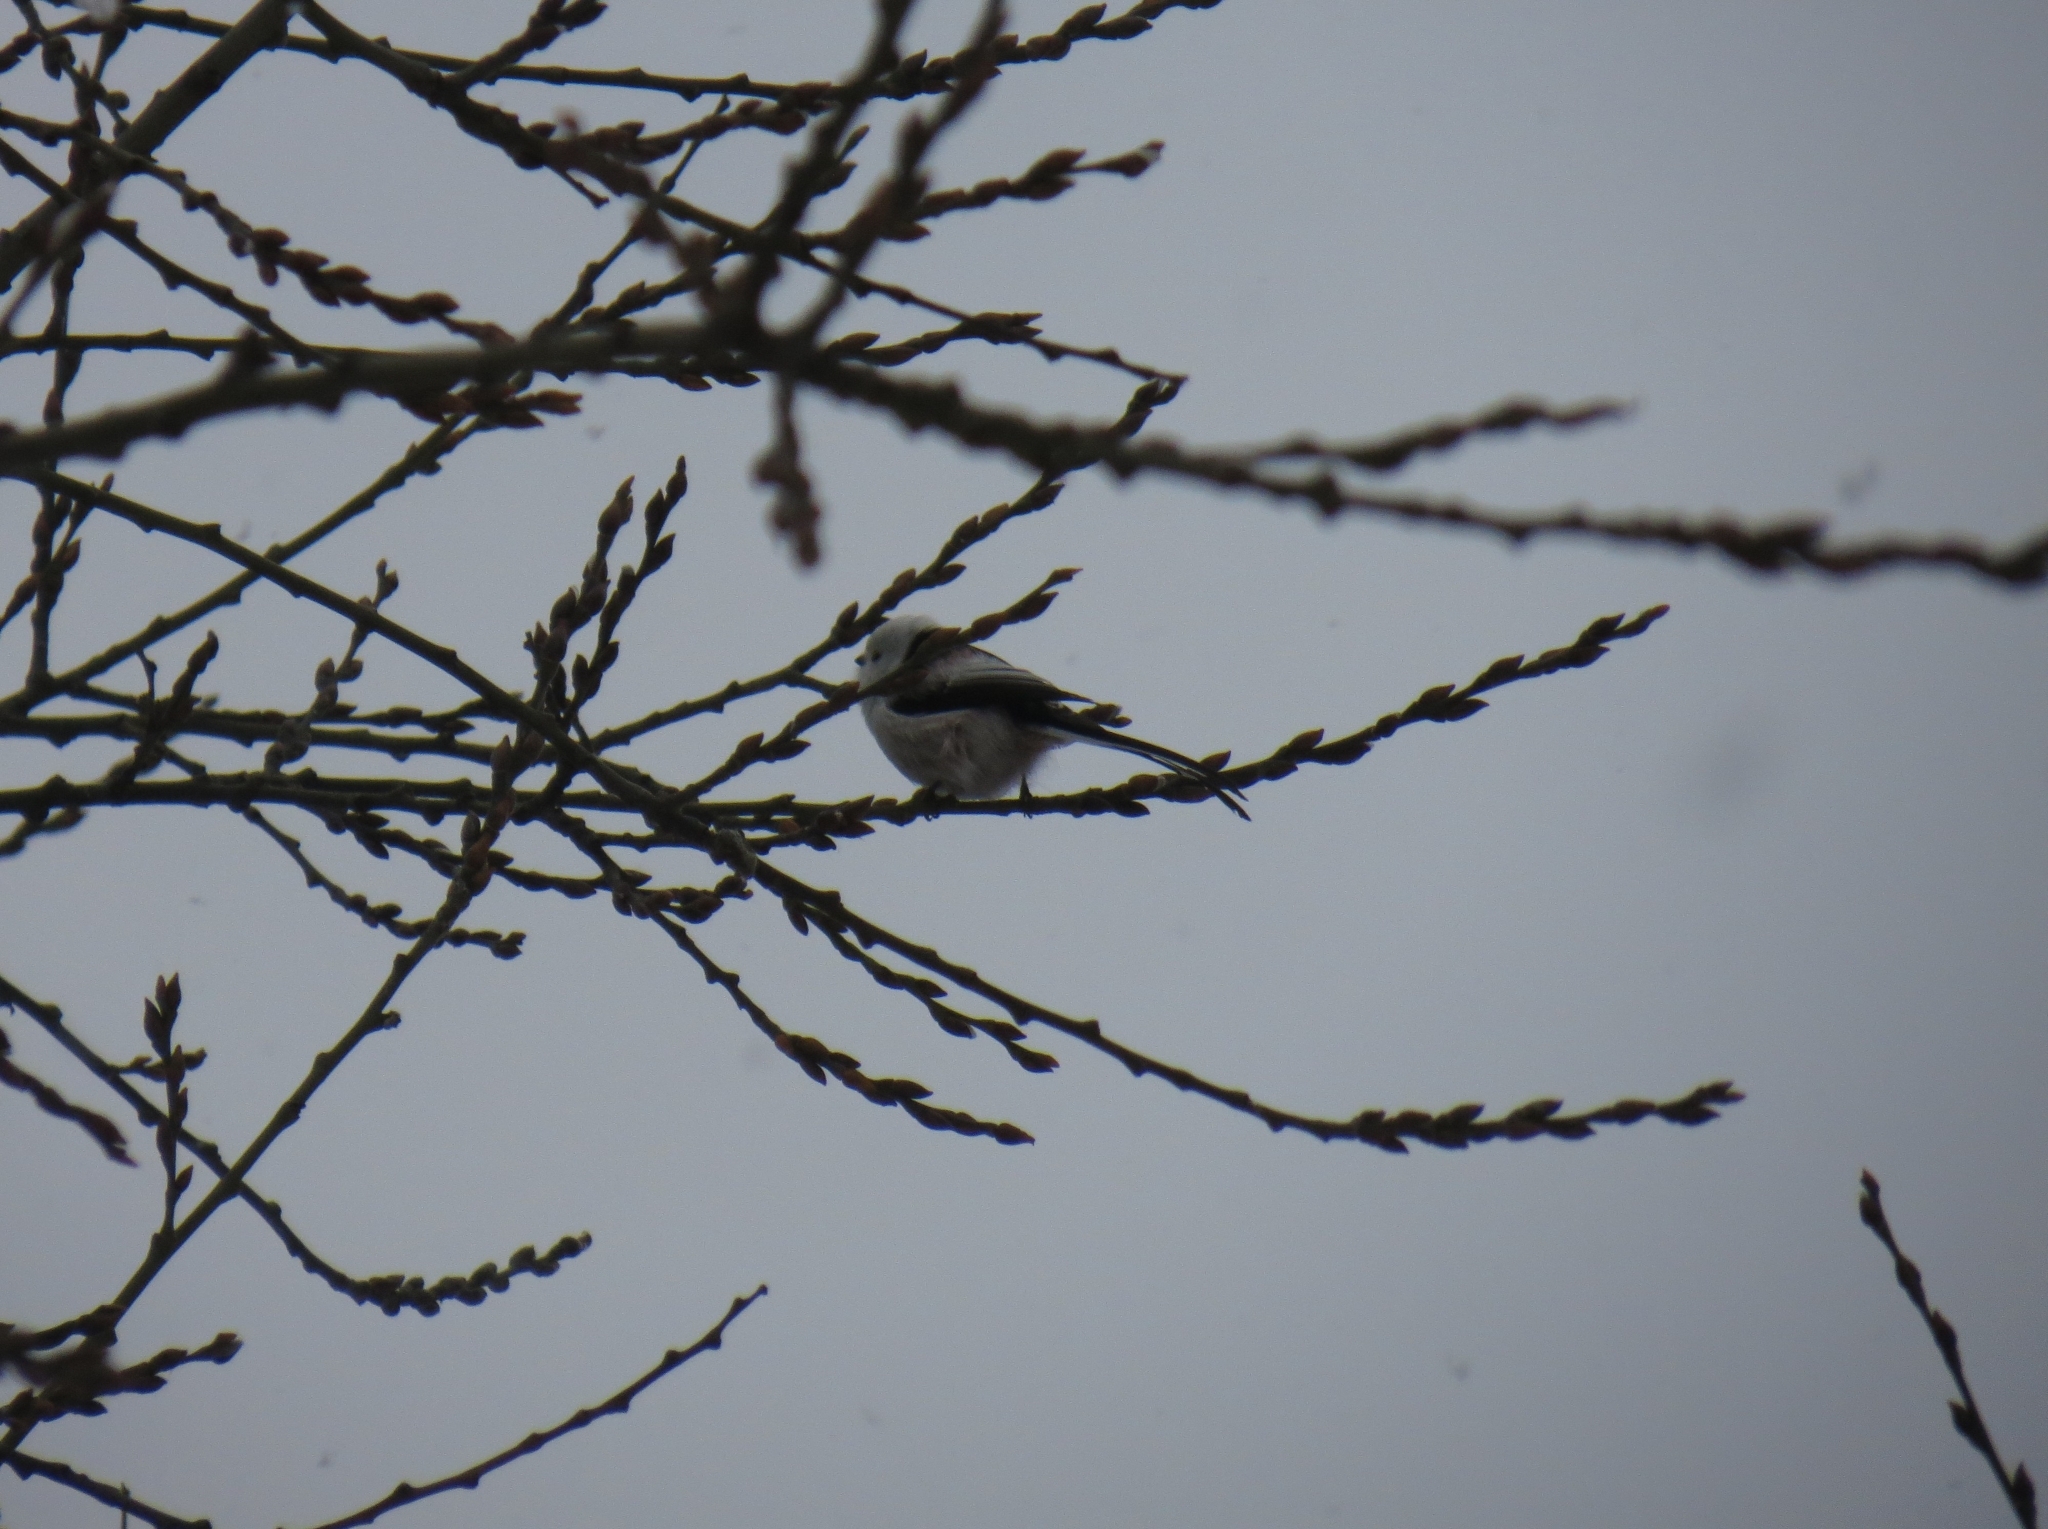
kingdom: Animalia
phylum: Chordata
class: Aves
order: Passeriformes
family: Aegithalidae
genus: Aegithalos
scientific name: Aegithalos caudatus
